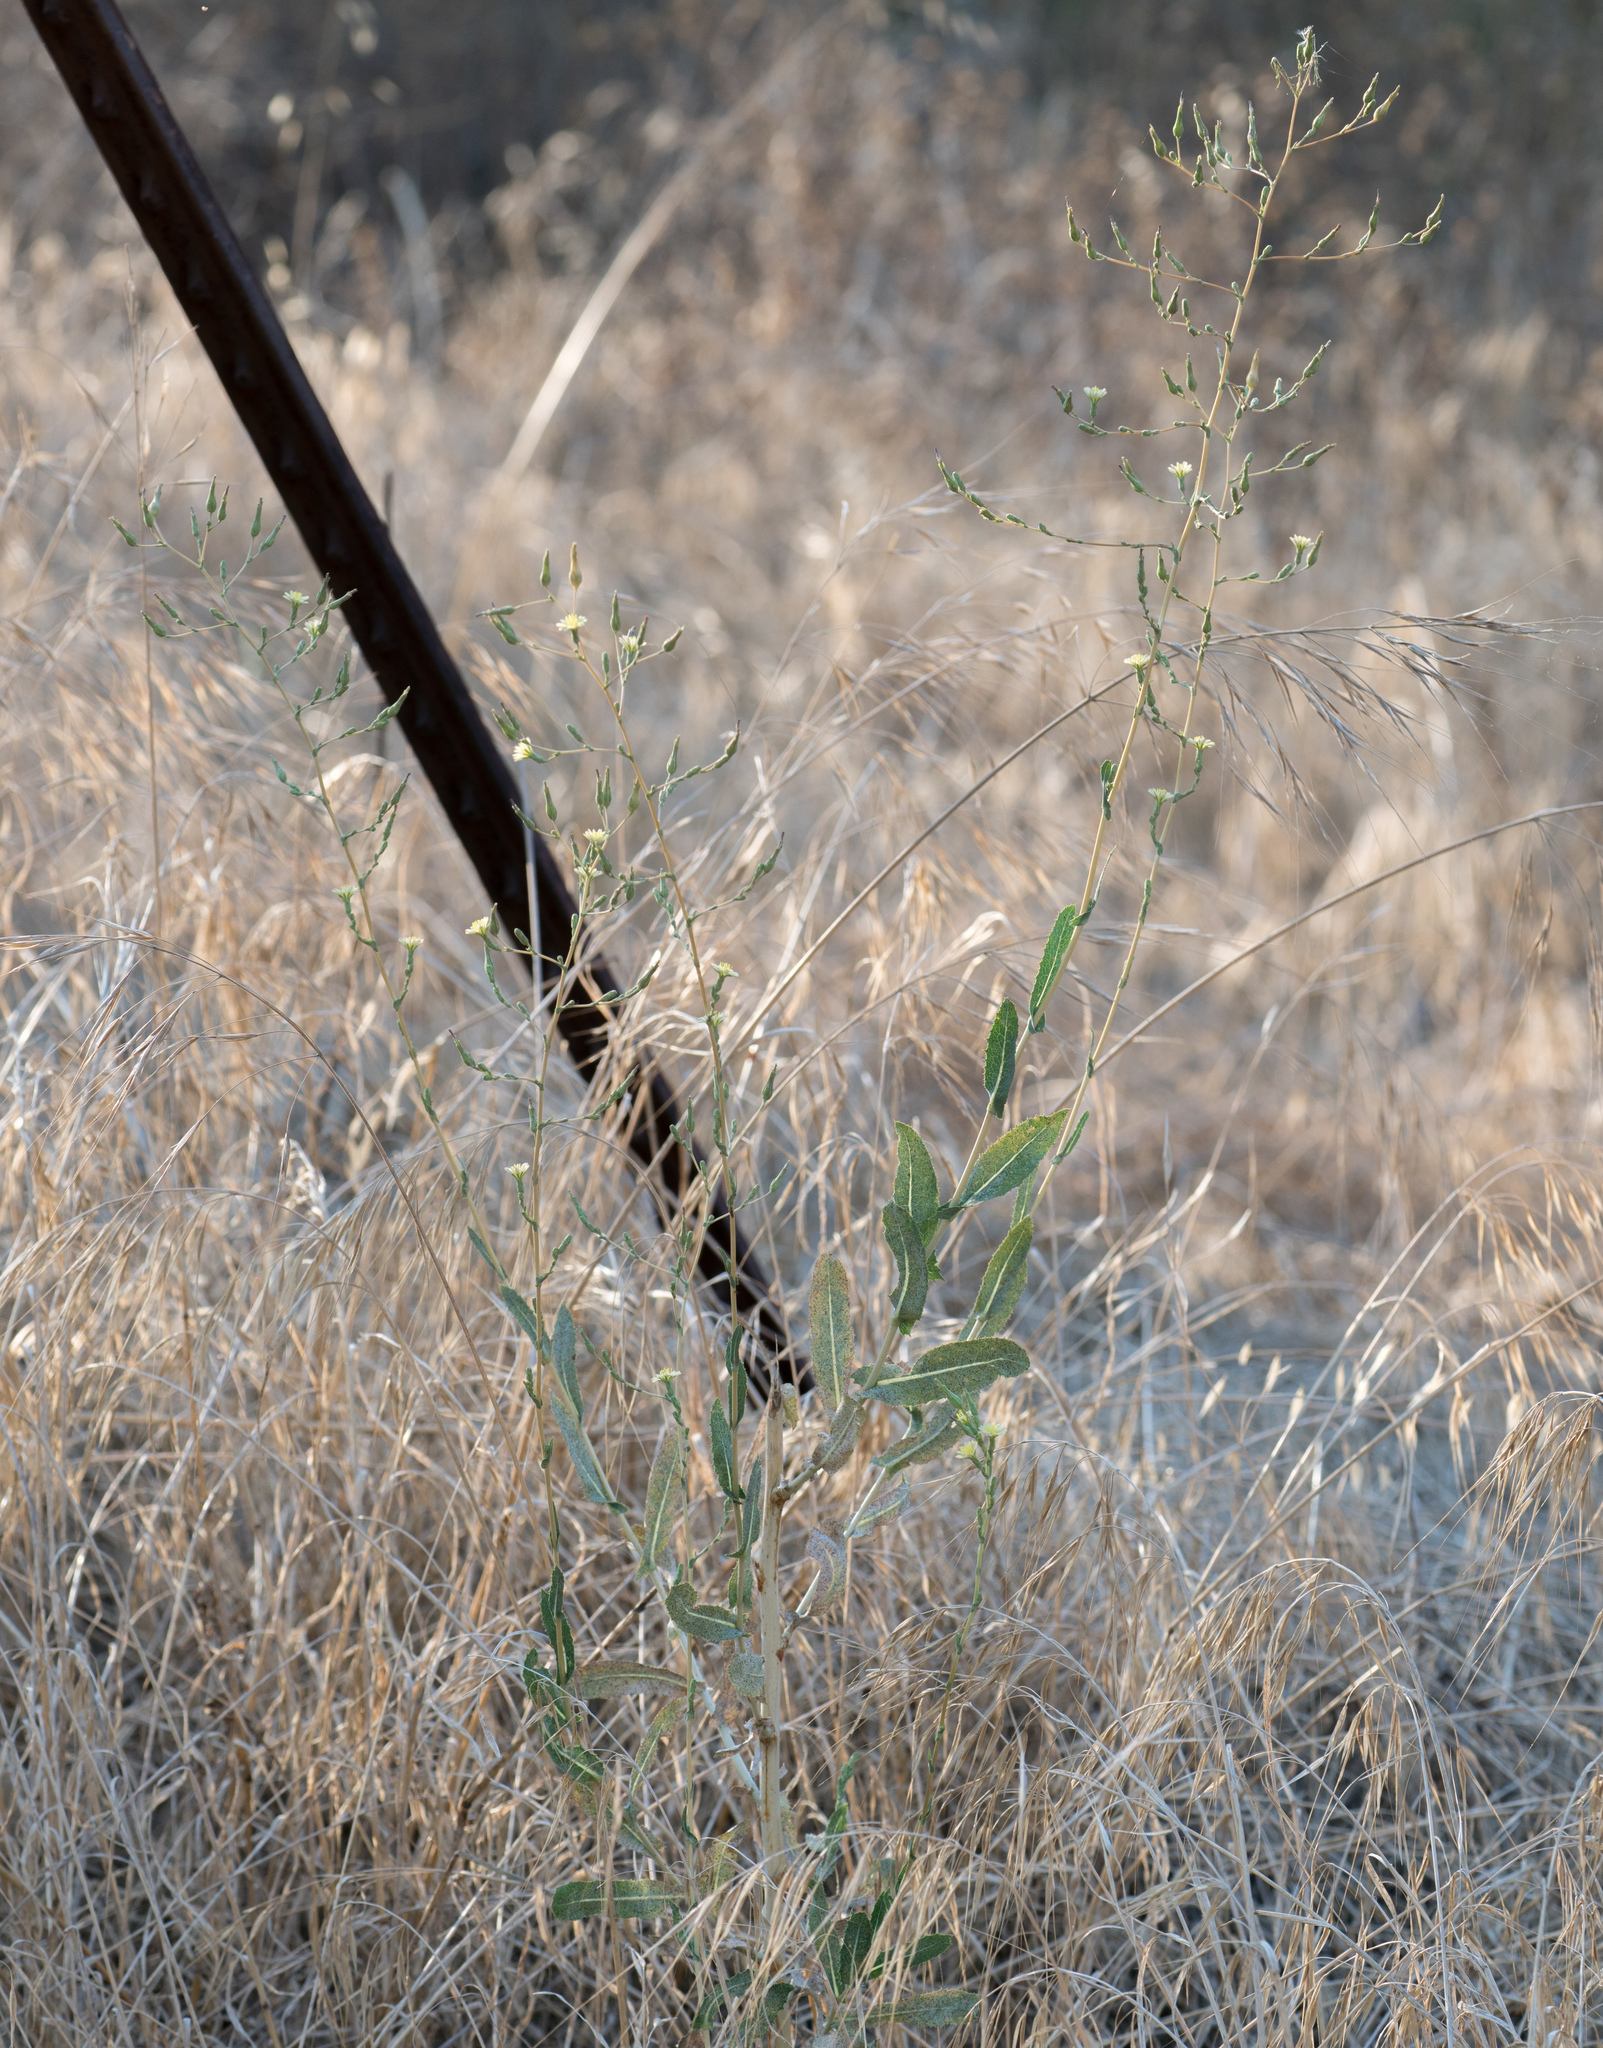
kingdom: Plantae
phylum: Tracheophyta
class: Magnoliopsida
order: Asterales
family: Asteraceae
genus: Lactuca
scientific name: Lactuca serriola
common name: Prickly lettuce
